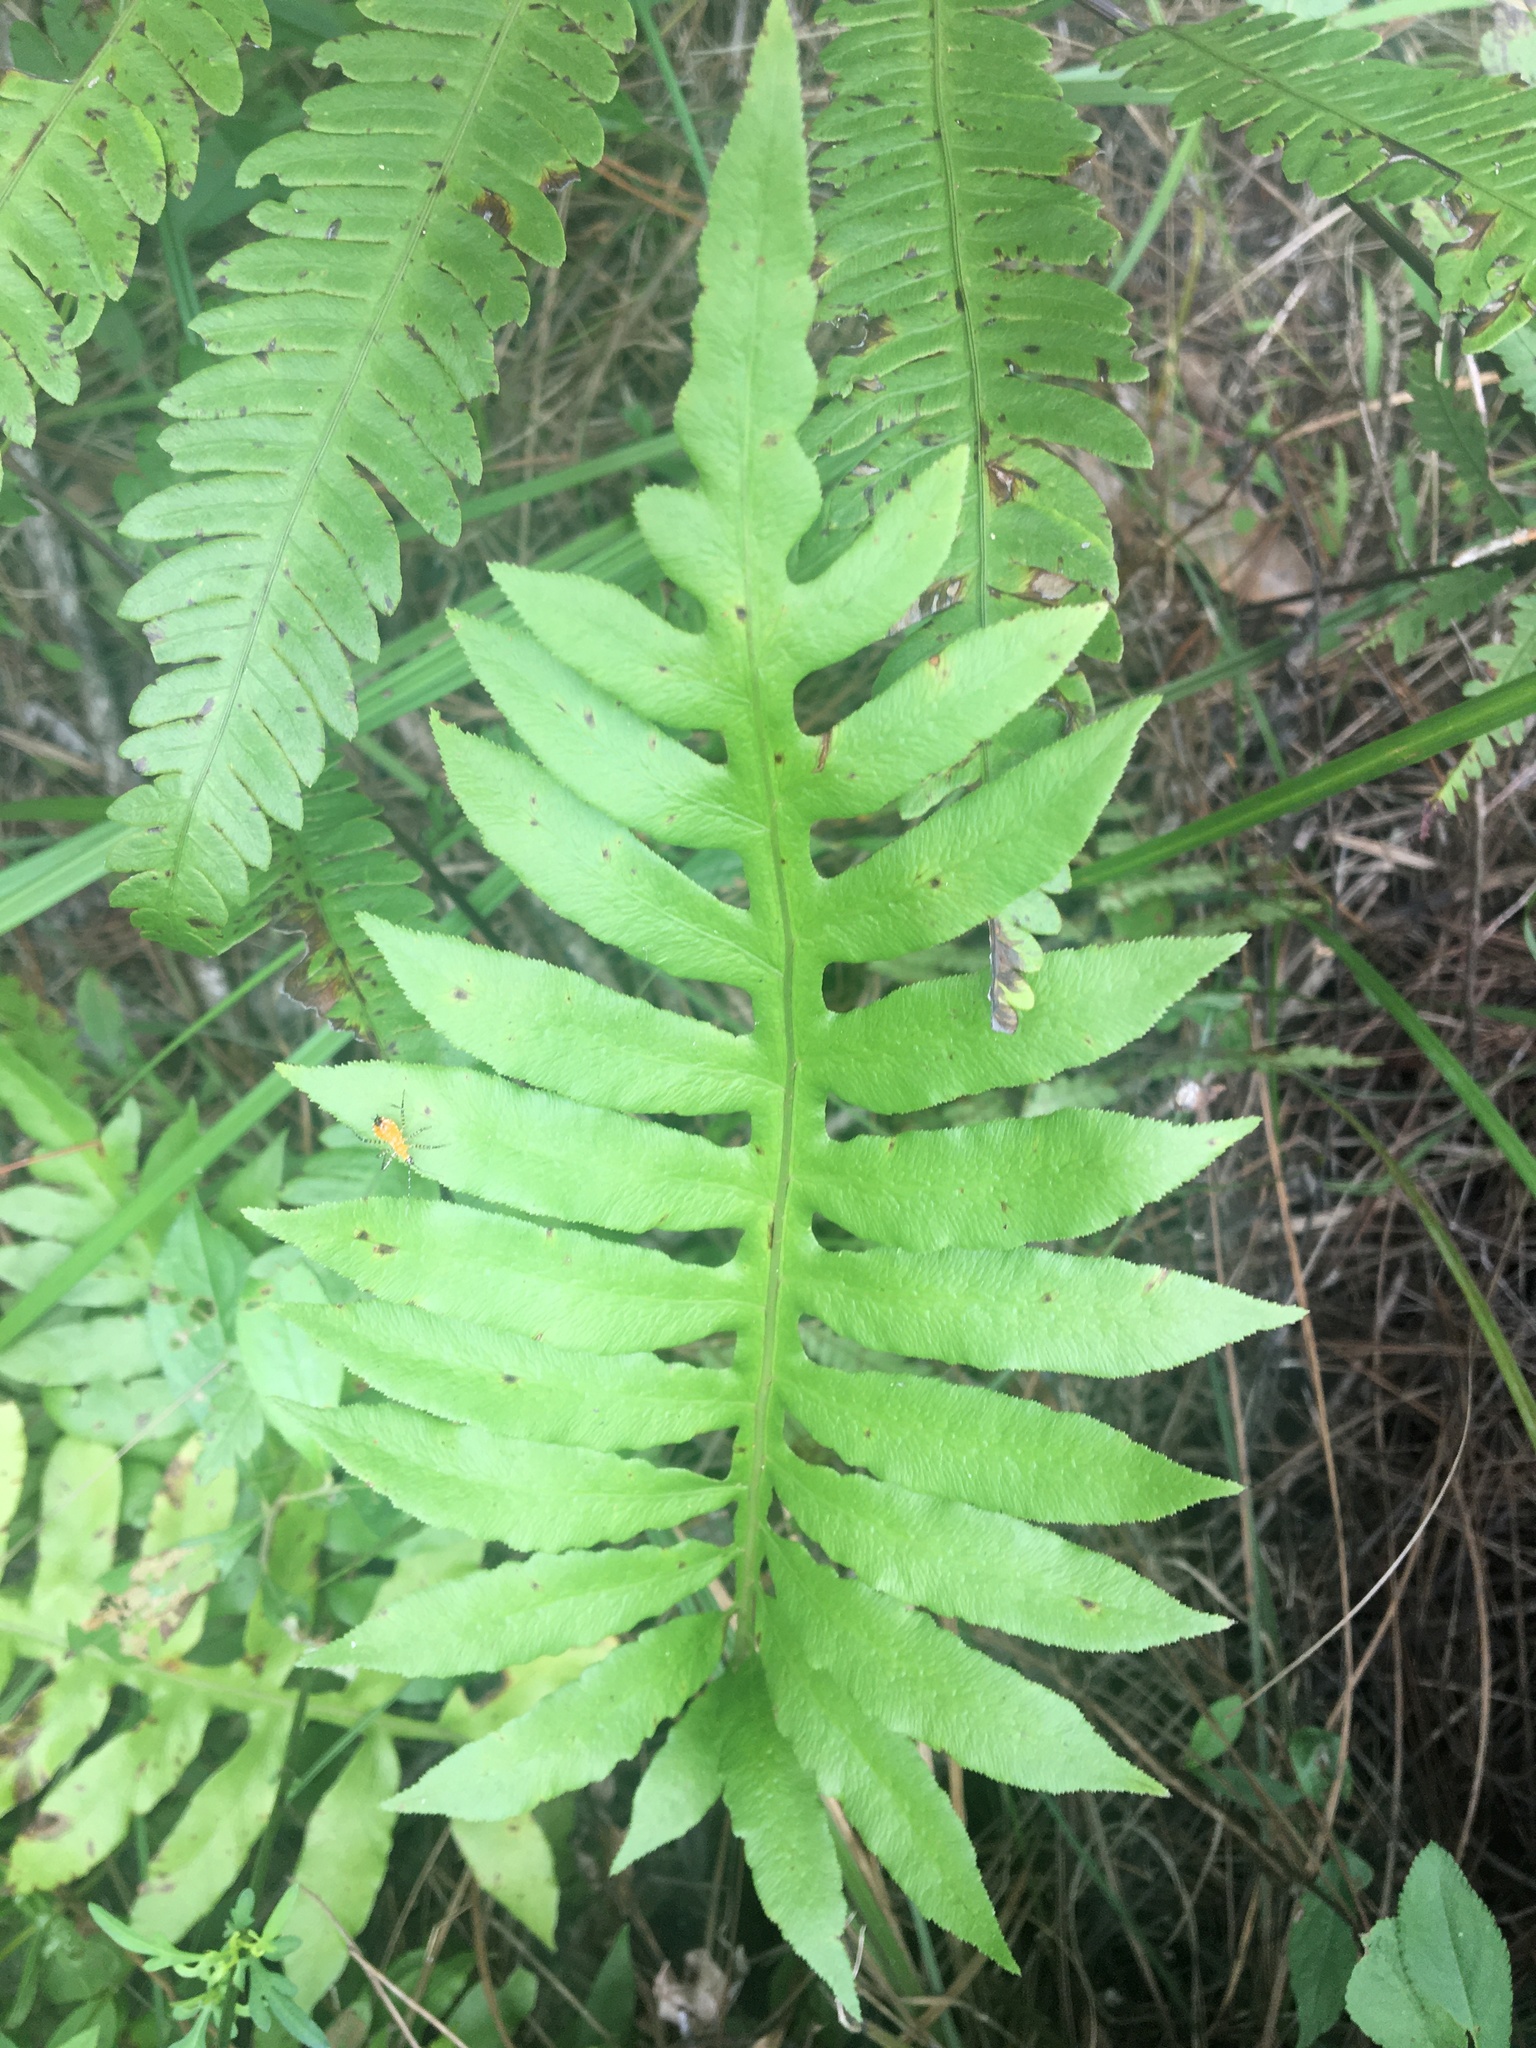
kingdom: Plantae
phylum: Tracheophyta
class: Polypodiopsida
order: Polypodiales
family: Blechnaceae
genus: Lorinseria
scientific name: Lorinseria areolata
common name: Dwarf chain fern
